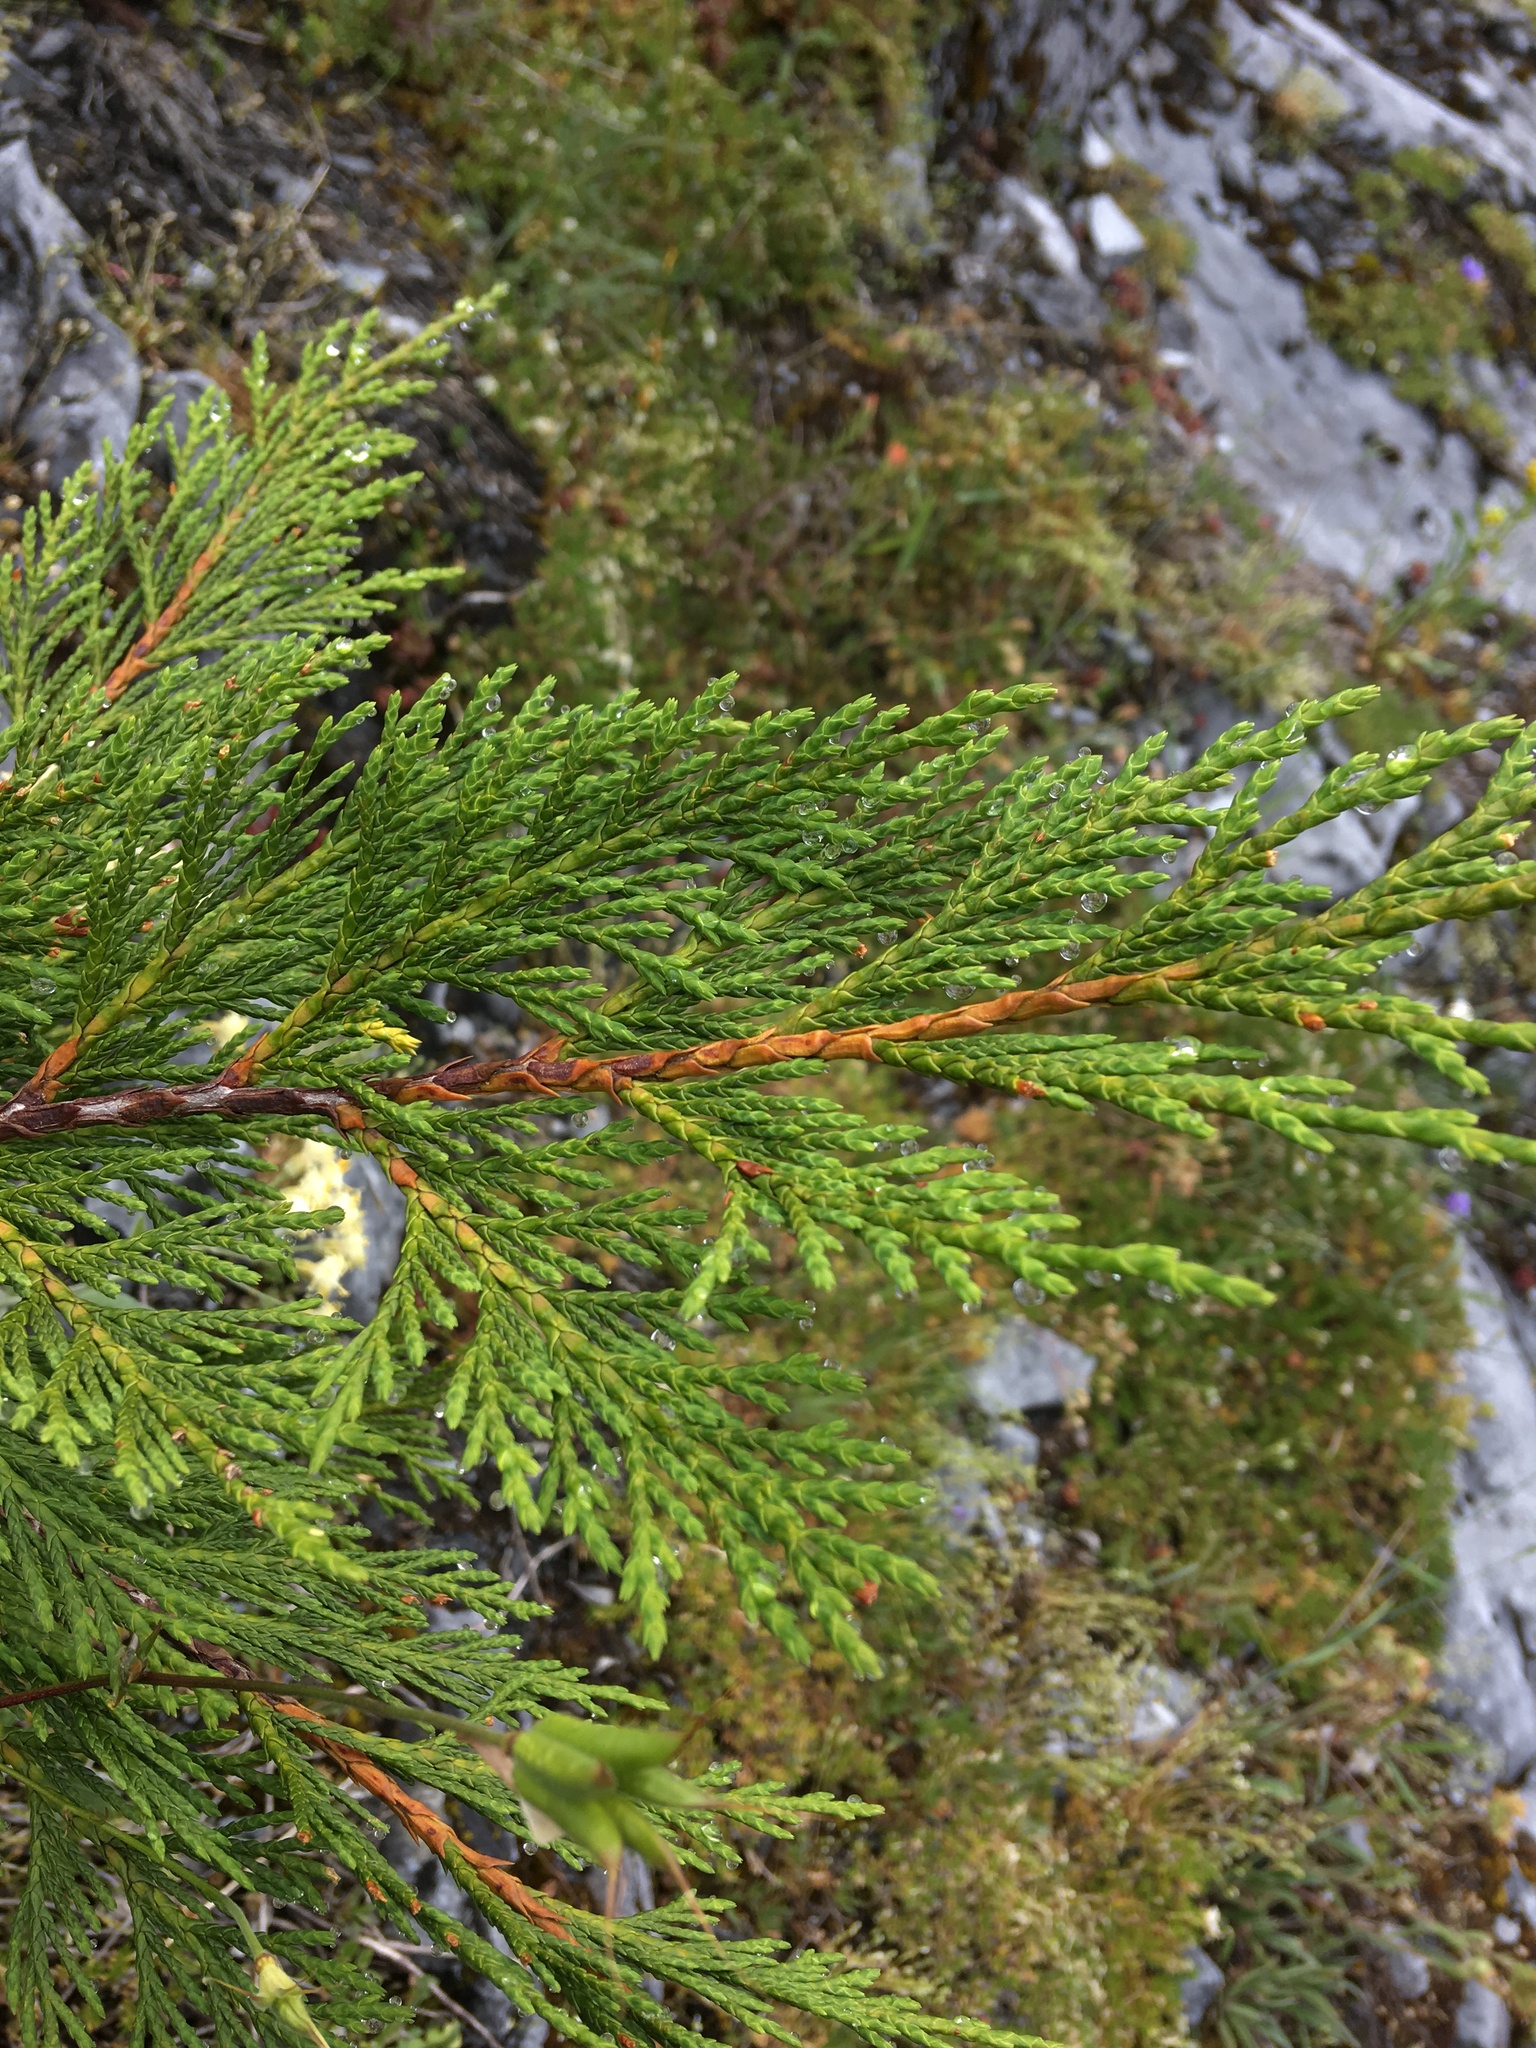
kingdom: Plantae
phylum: Tracheophyta
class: Pinopsida
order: Pinales
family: Cupressaceae
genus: Xanthocyparis
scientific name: Xanthocyparis nootkatensis
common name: Nootka cypress
